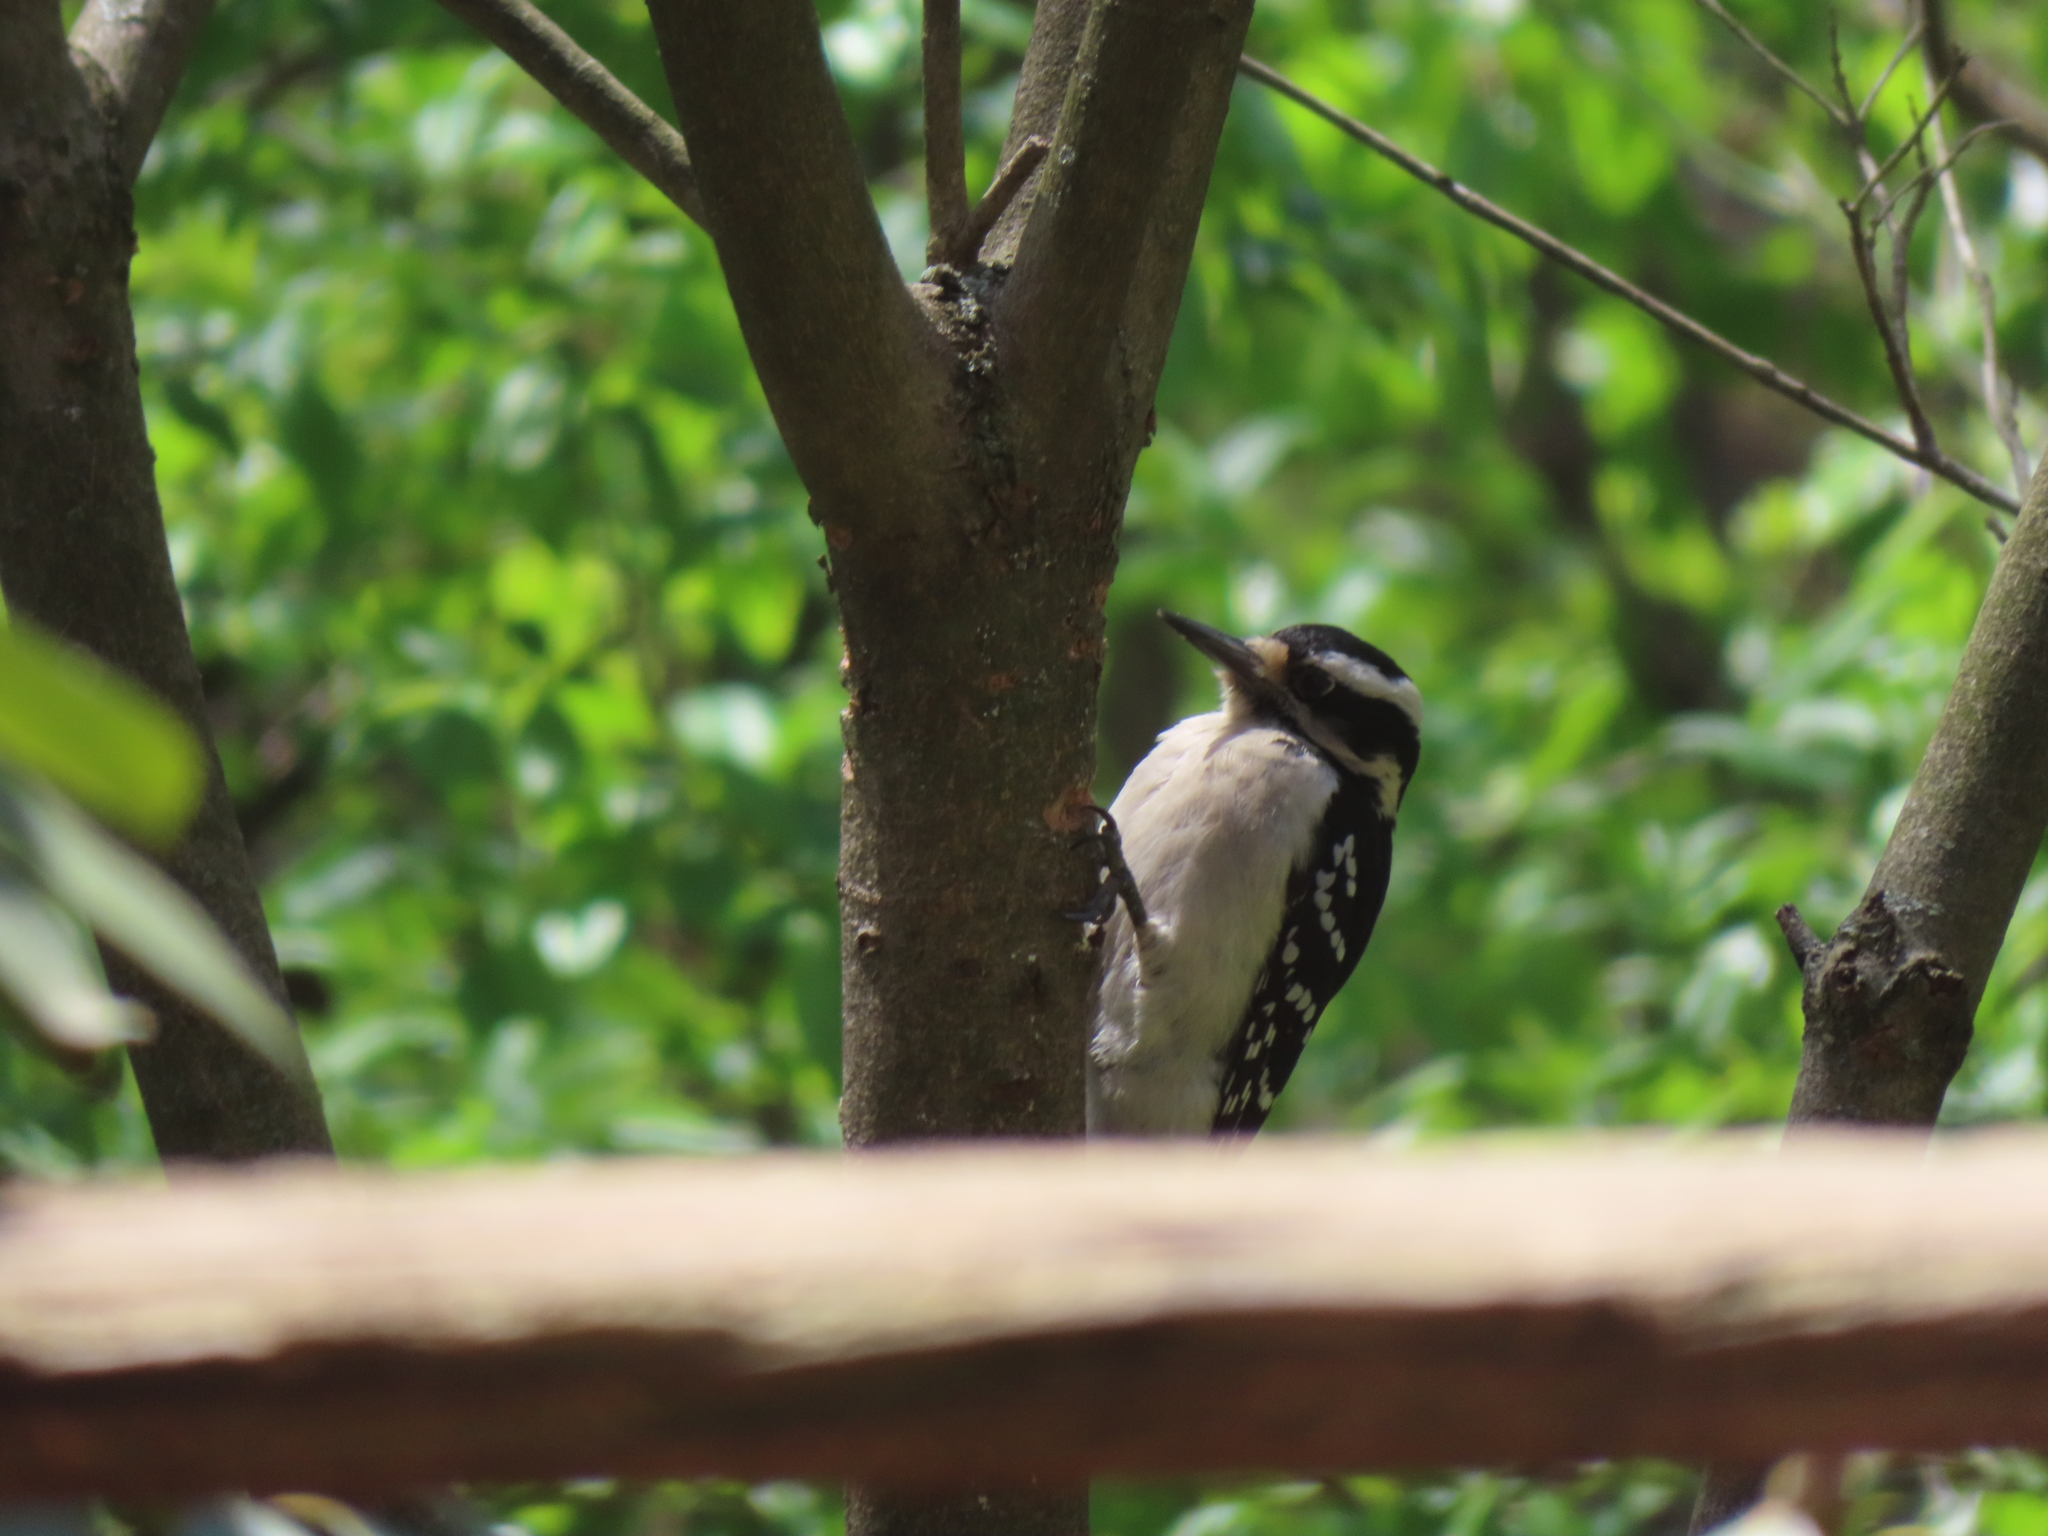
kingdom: Animalia
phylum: Chordata
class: Aves
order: Piciformes
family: Picidae
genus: Leuconotopicus
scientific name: Leuconotopicus villosus
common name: Hairy woodpecker
